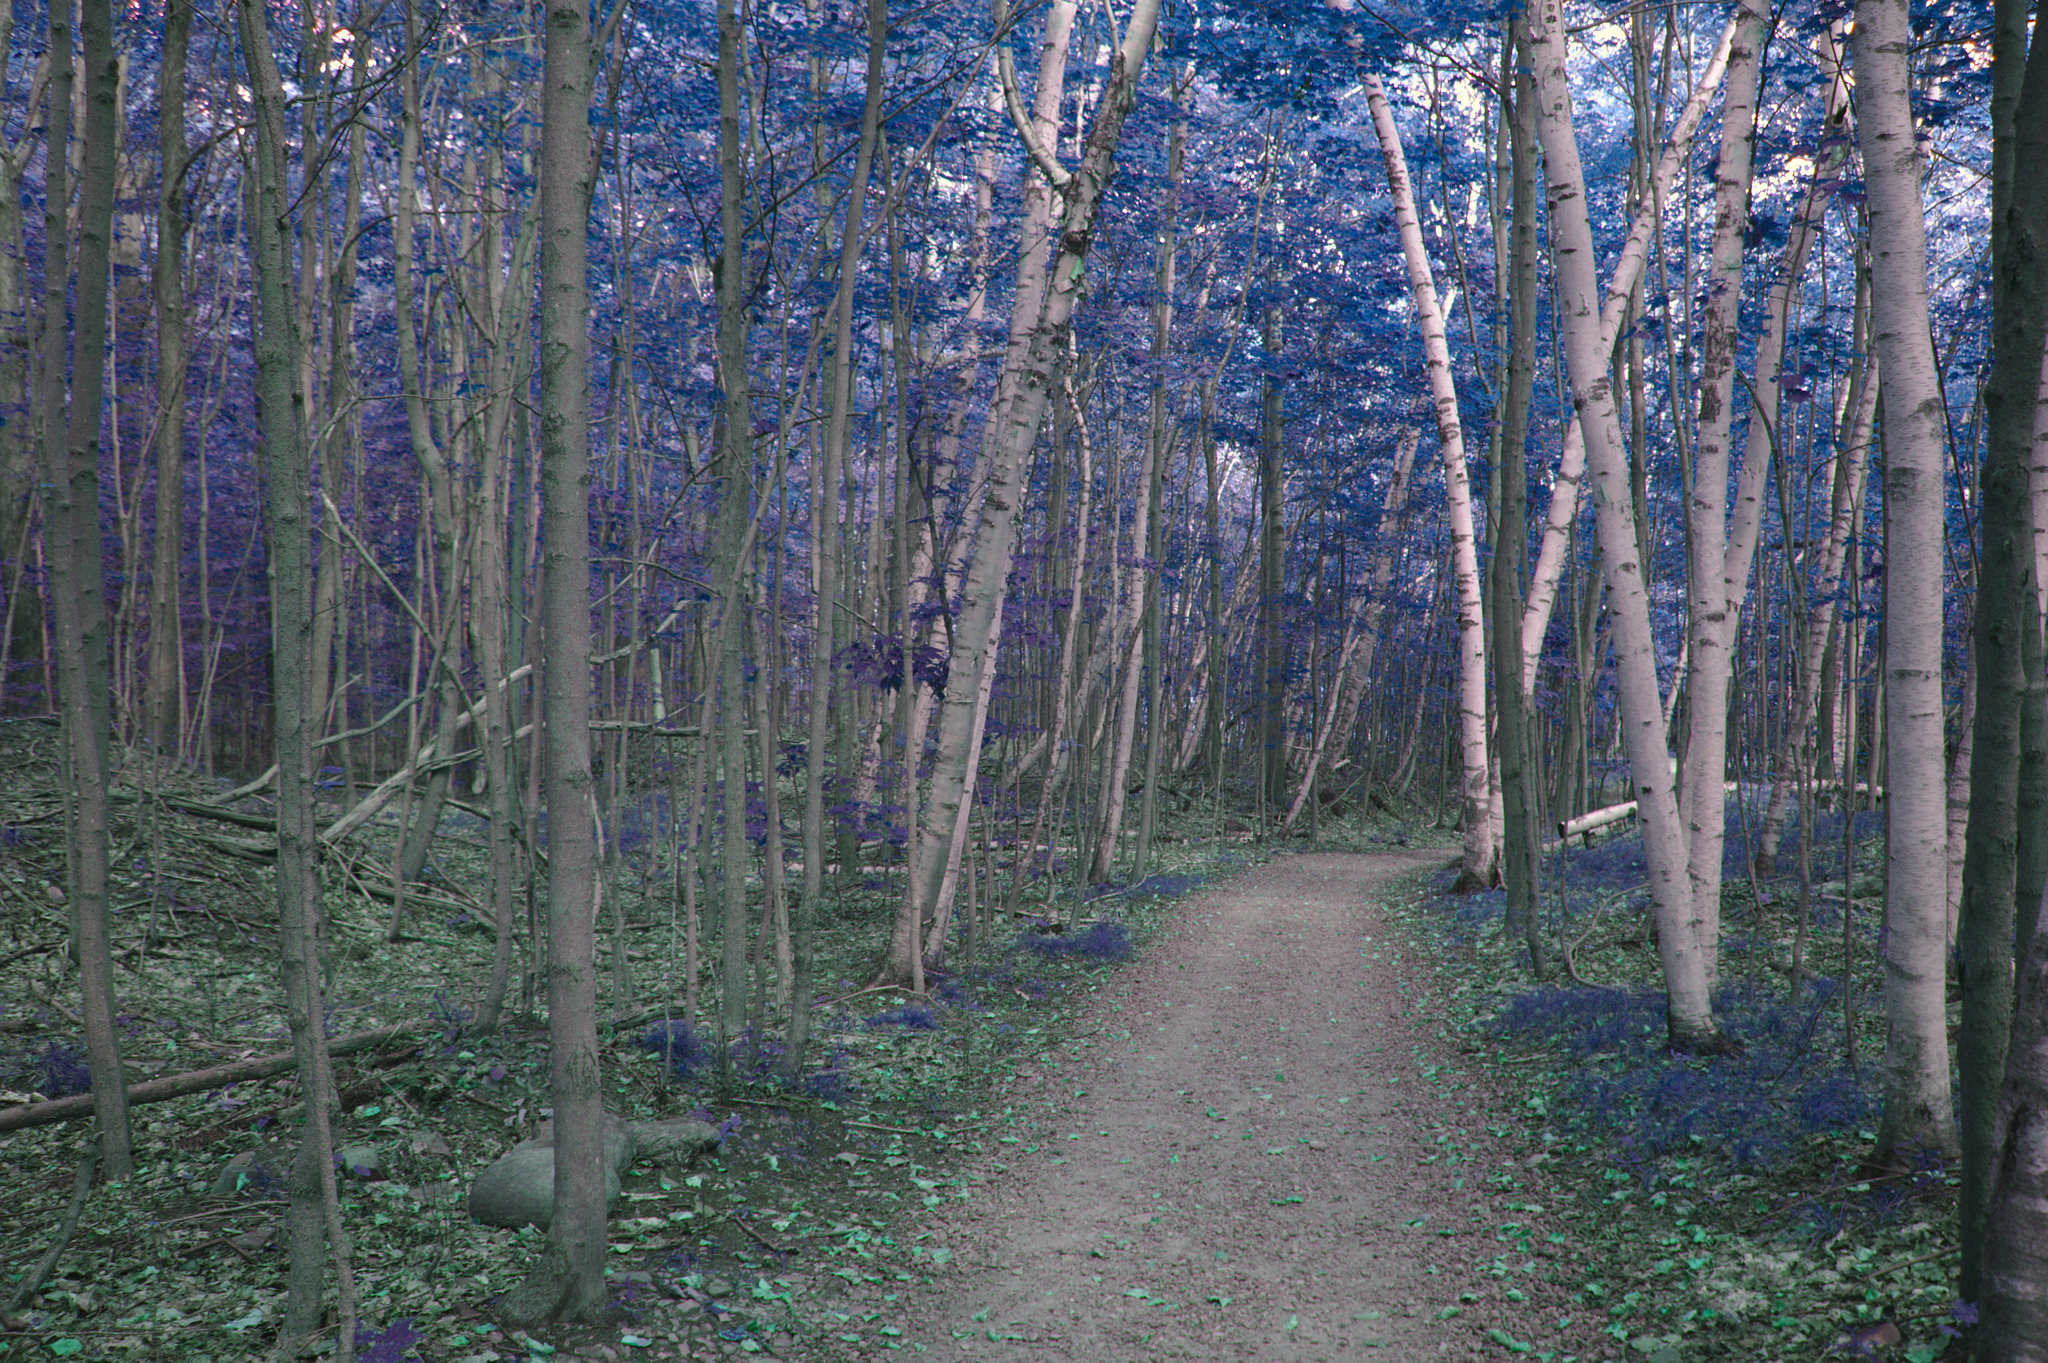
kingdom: Plantae
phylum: Tracheophyta
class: Magnoliopsida
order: Fagales
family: Betulaceae
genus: Betula
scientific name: Betula papyrifera
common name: Paper birch
